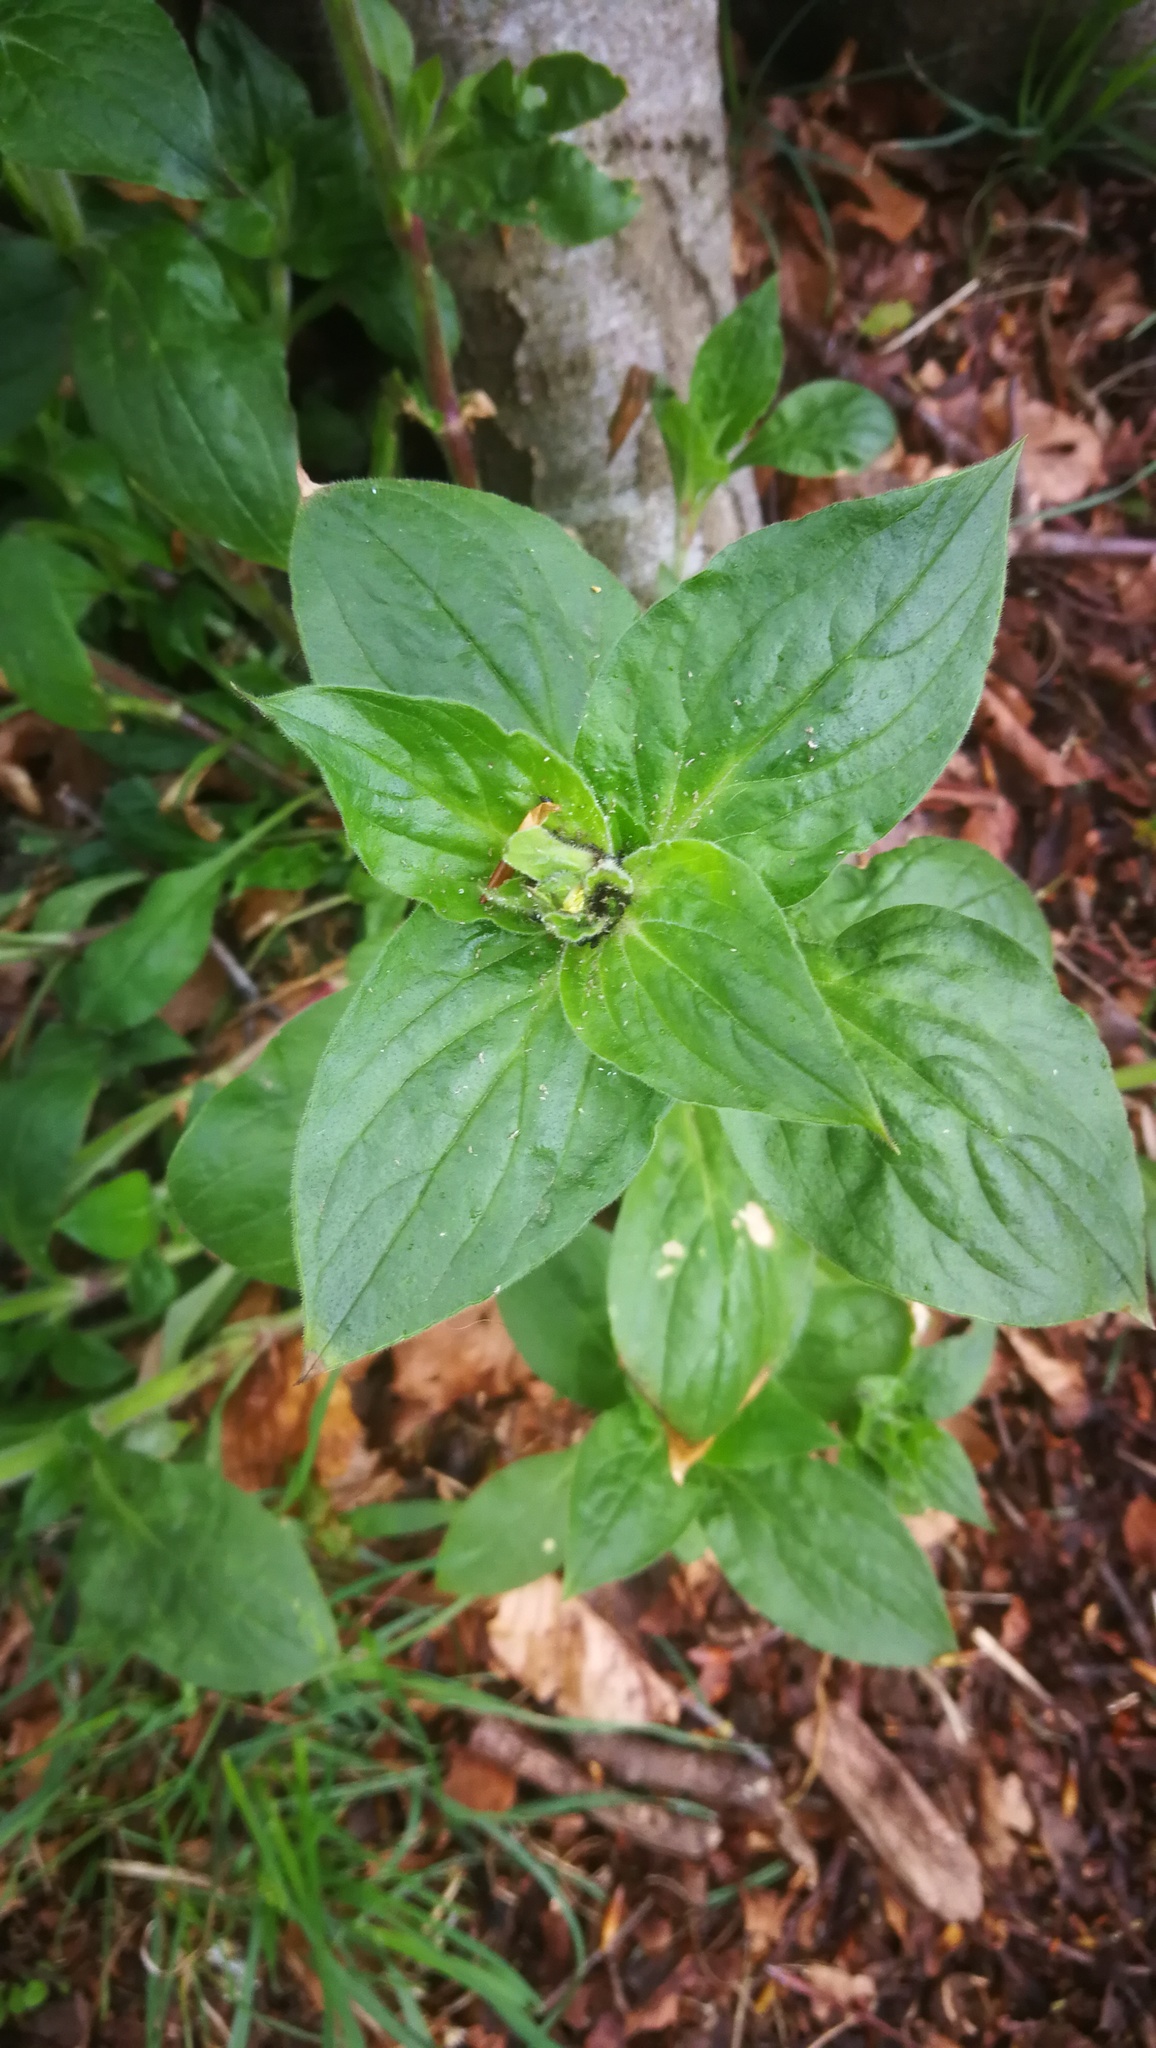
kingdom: Plantae
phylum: Tracheophyta
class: Magnoliopsida
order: Caryophyllales
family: Caryophyllaceae
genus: Silene
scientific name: Silene dioica
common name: Red campion
